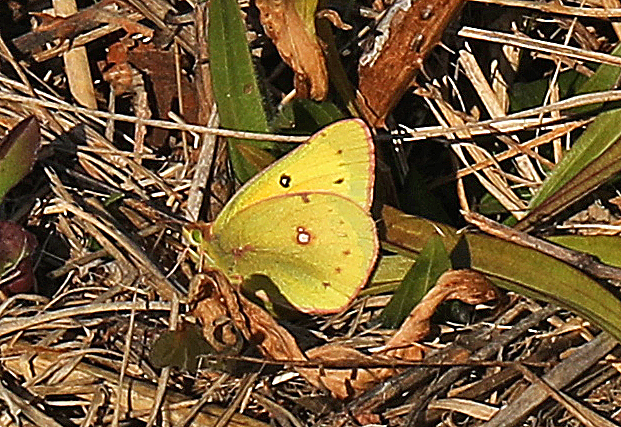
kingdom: Animalia
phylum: Arthropoda
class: Insecta
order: Lepidoptera
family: Pieridae
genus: Colias
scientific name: Colias eurytheme
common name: Alfalfa butterfly
